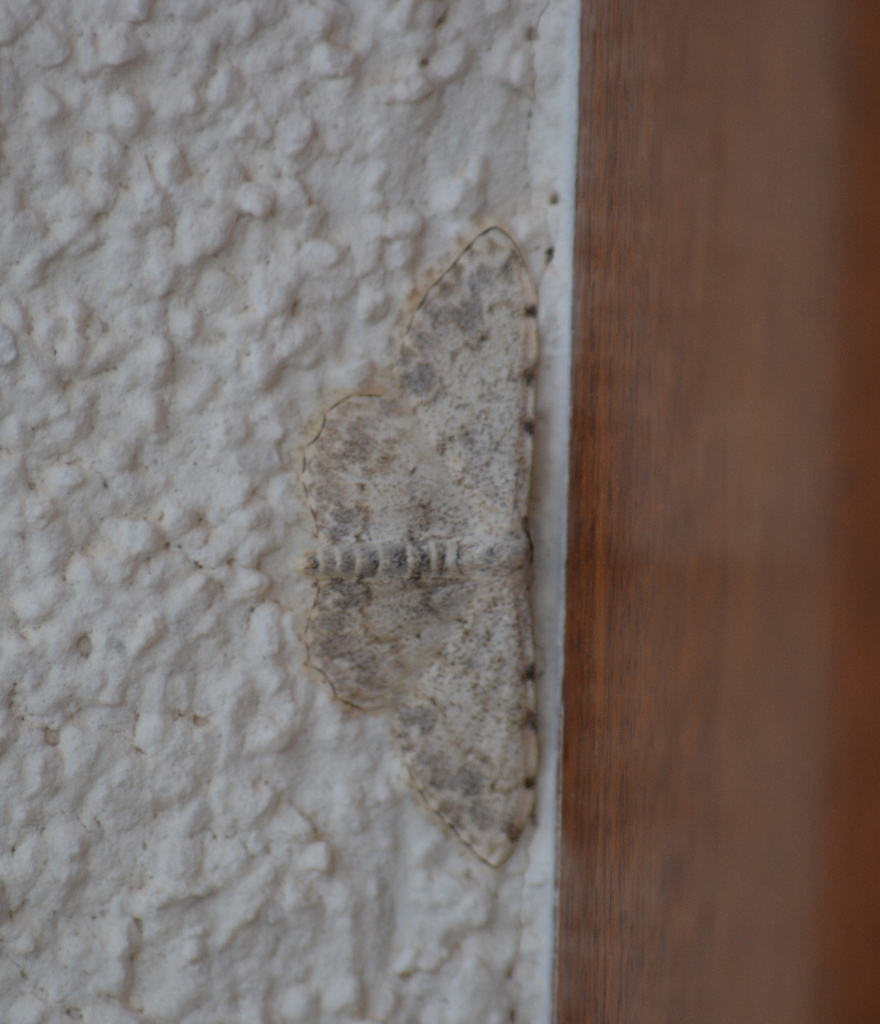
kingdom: Animalia
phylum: Arthropoda
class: Insecta
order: Lepidoptera
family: Geometridae
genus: Scopula
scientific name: Scopula submutata
